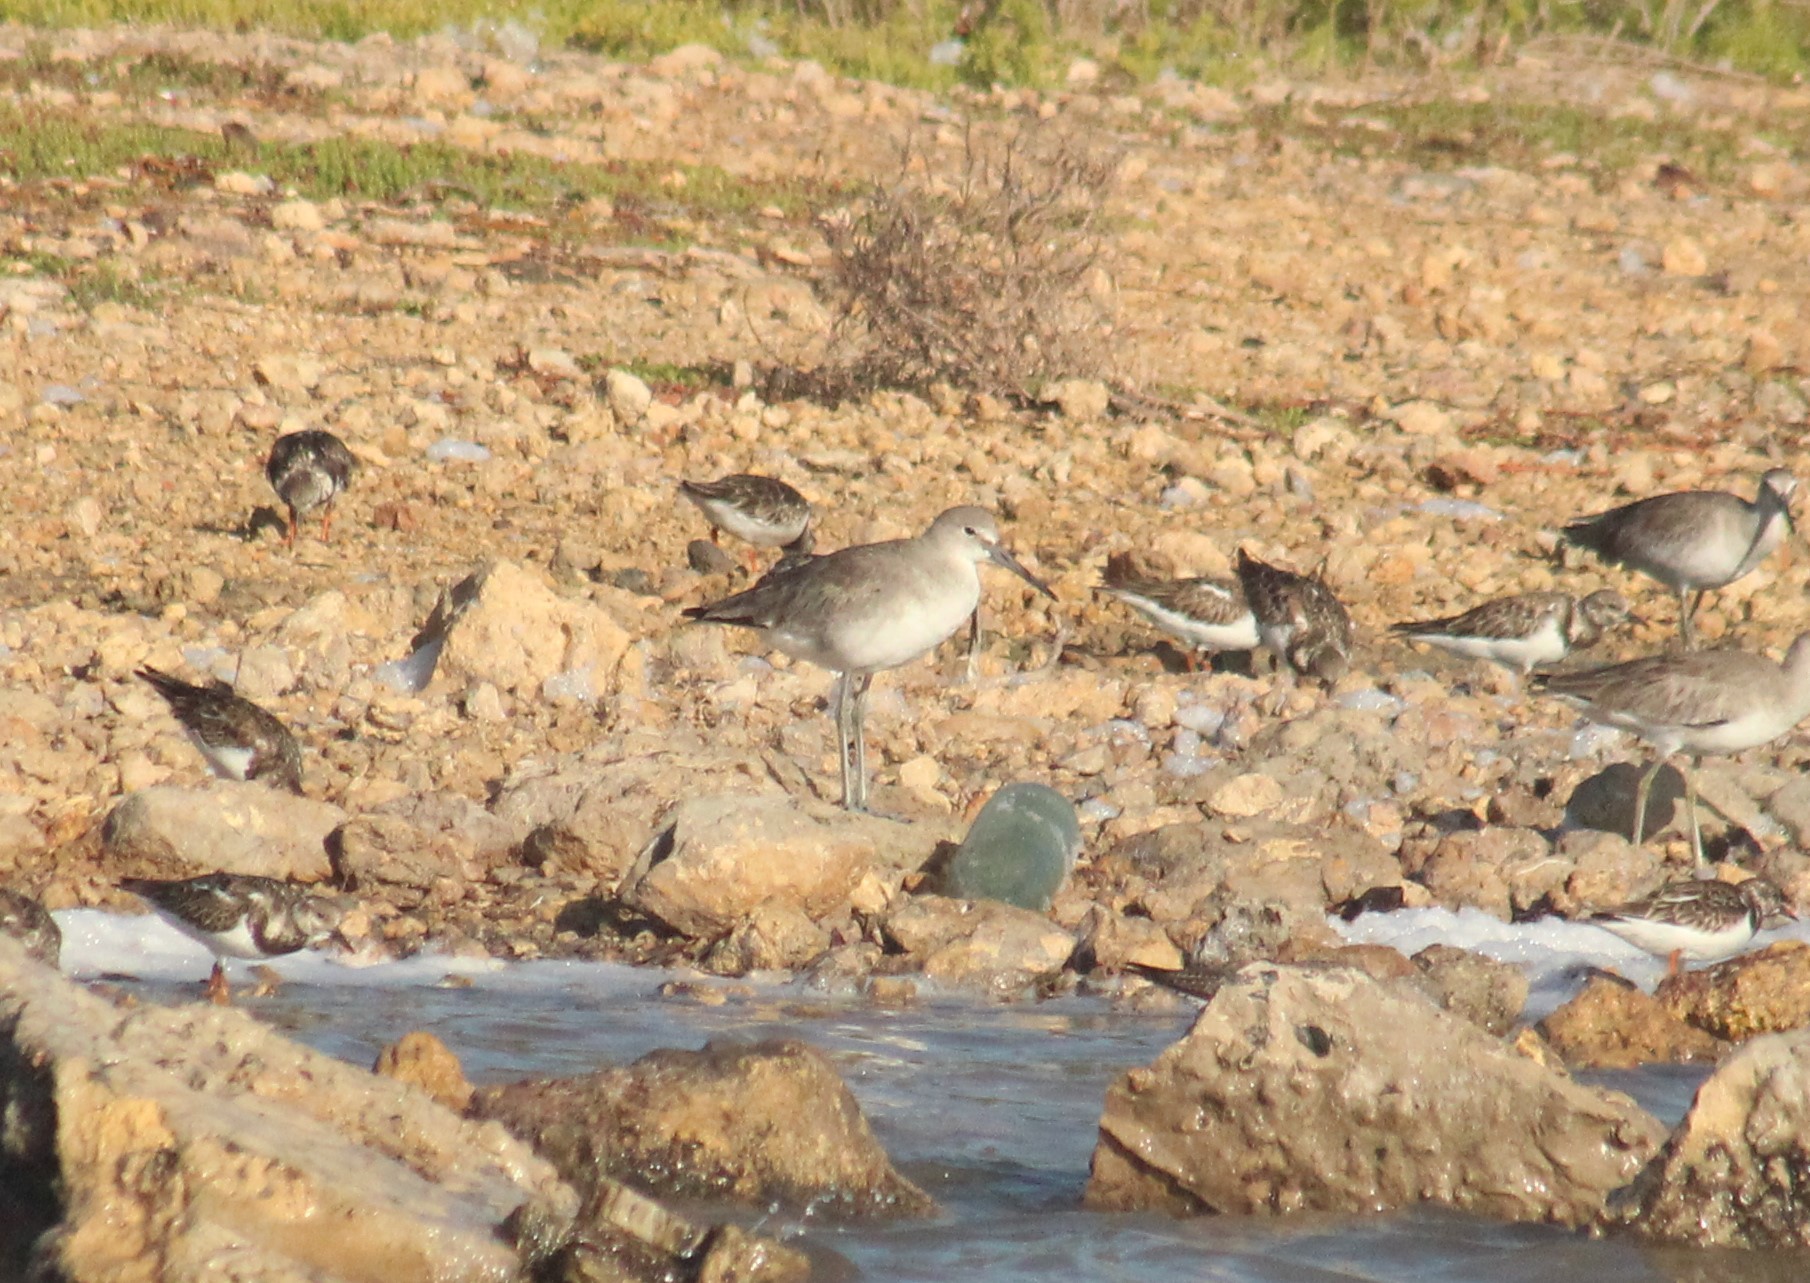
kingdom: Animalia
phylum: Chordata
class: Aves
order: Charadriiformes
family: Scolopacidae
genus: Tringa
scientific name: Tringa semipalmata
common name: Willet
